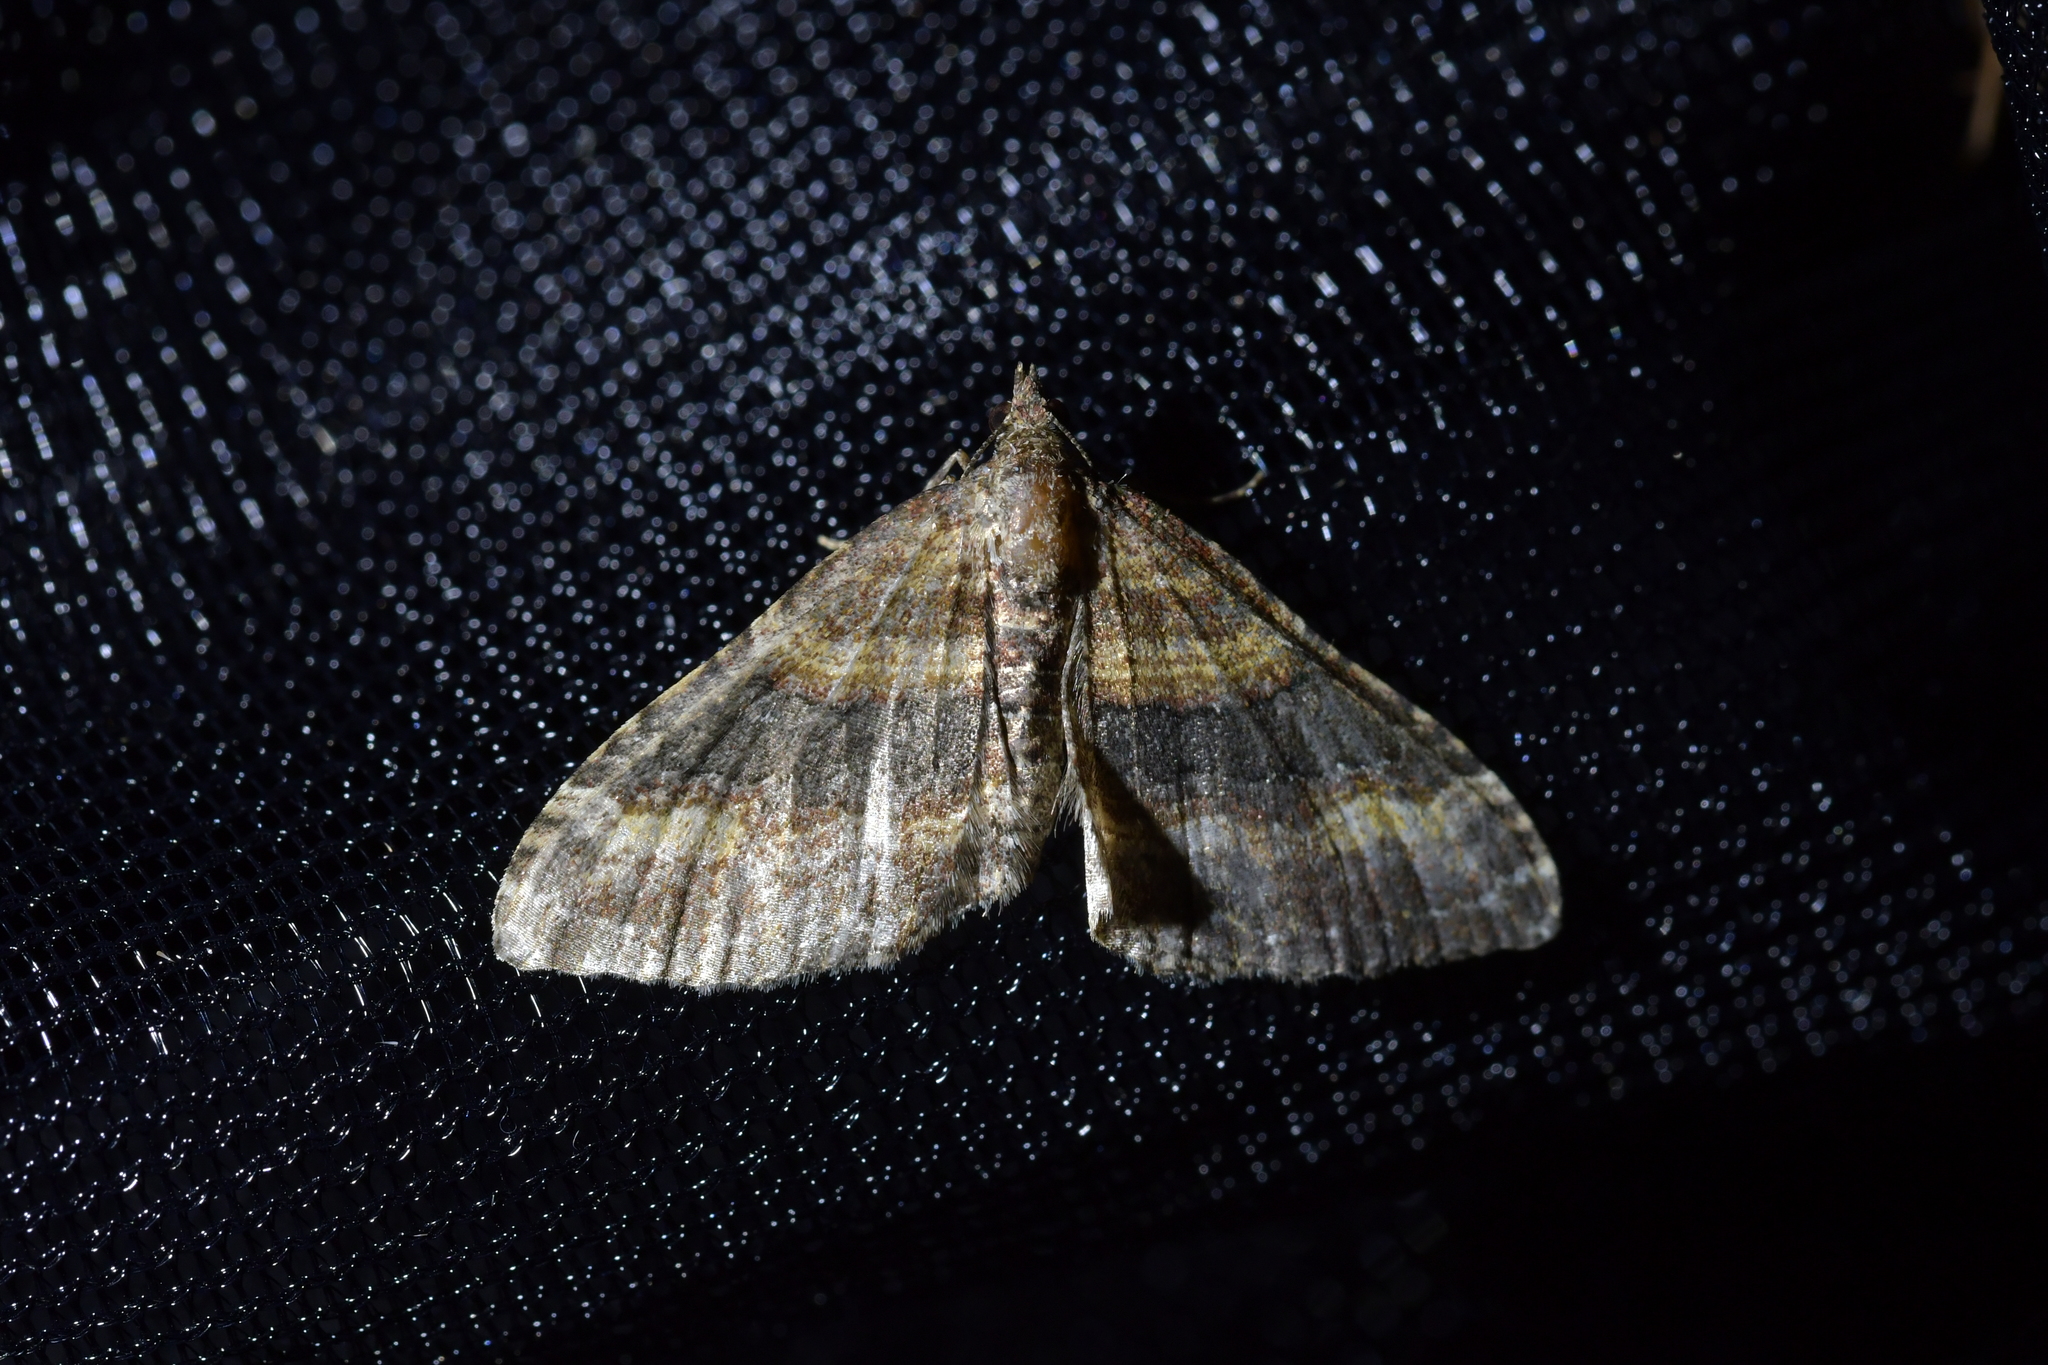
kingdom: Animalia
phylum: Arthropoda
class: Insecta
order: Lepidoptera
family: Geometridae
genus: Epyaxa
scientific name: Epyaxa lucidata
